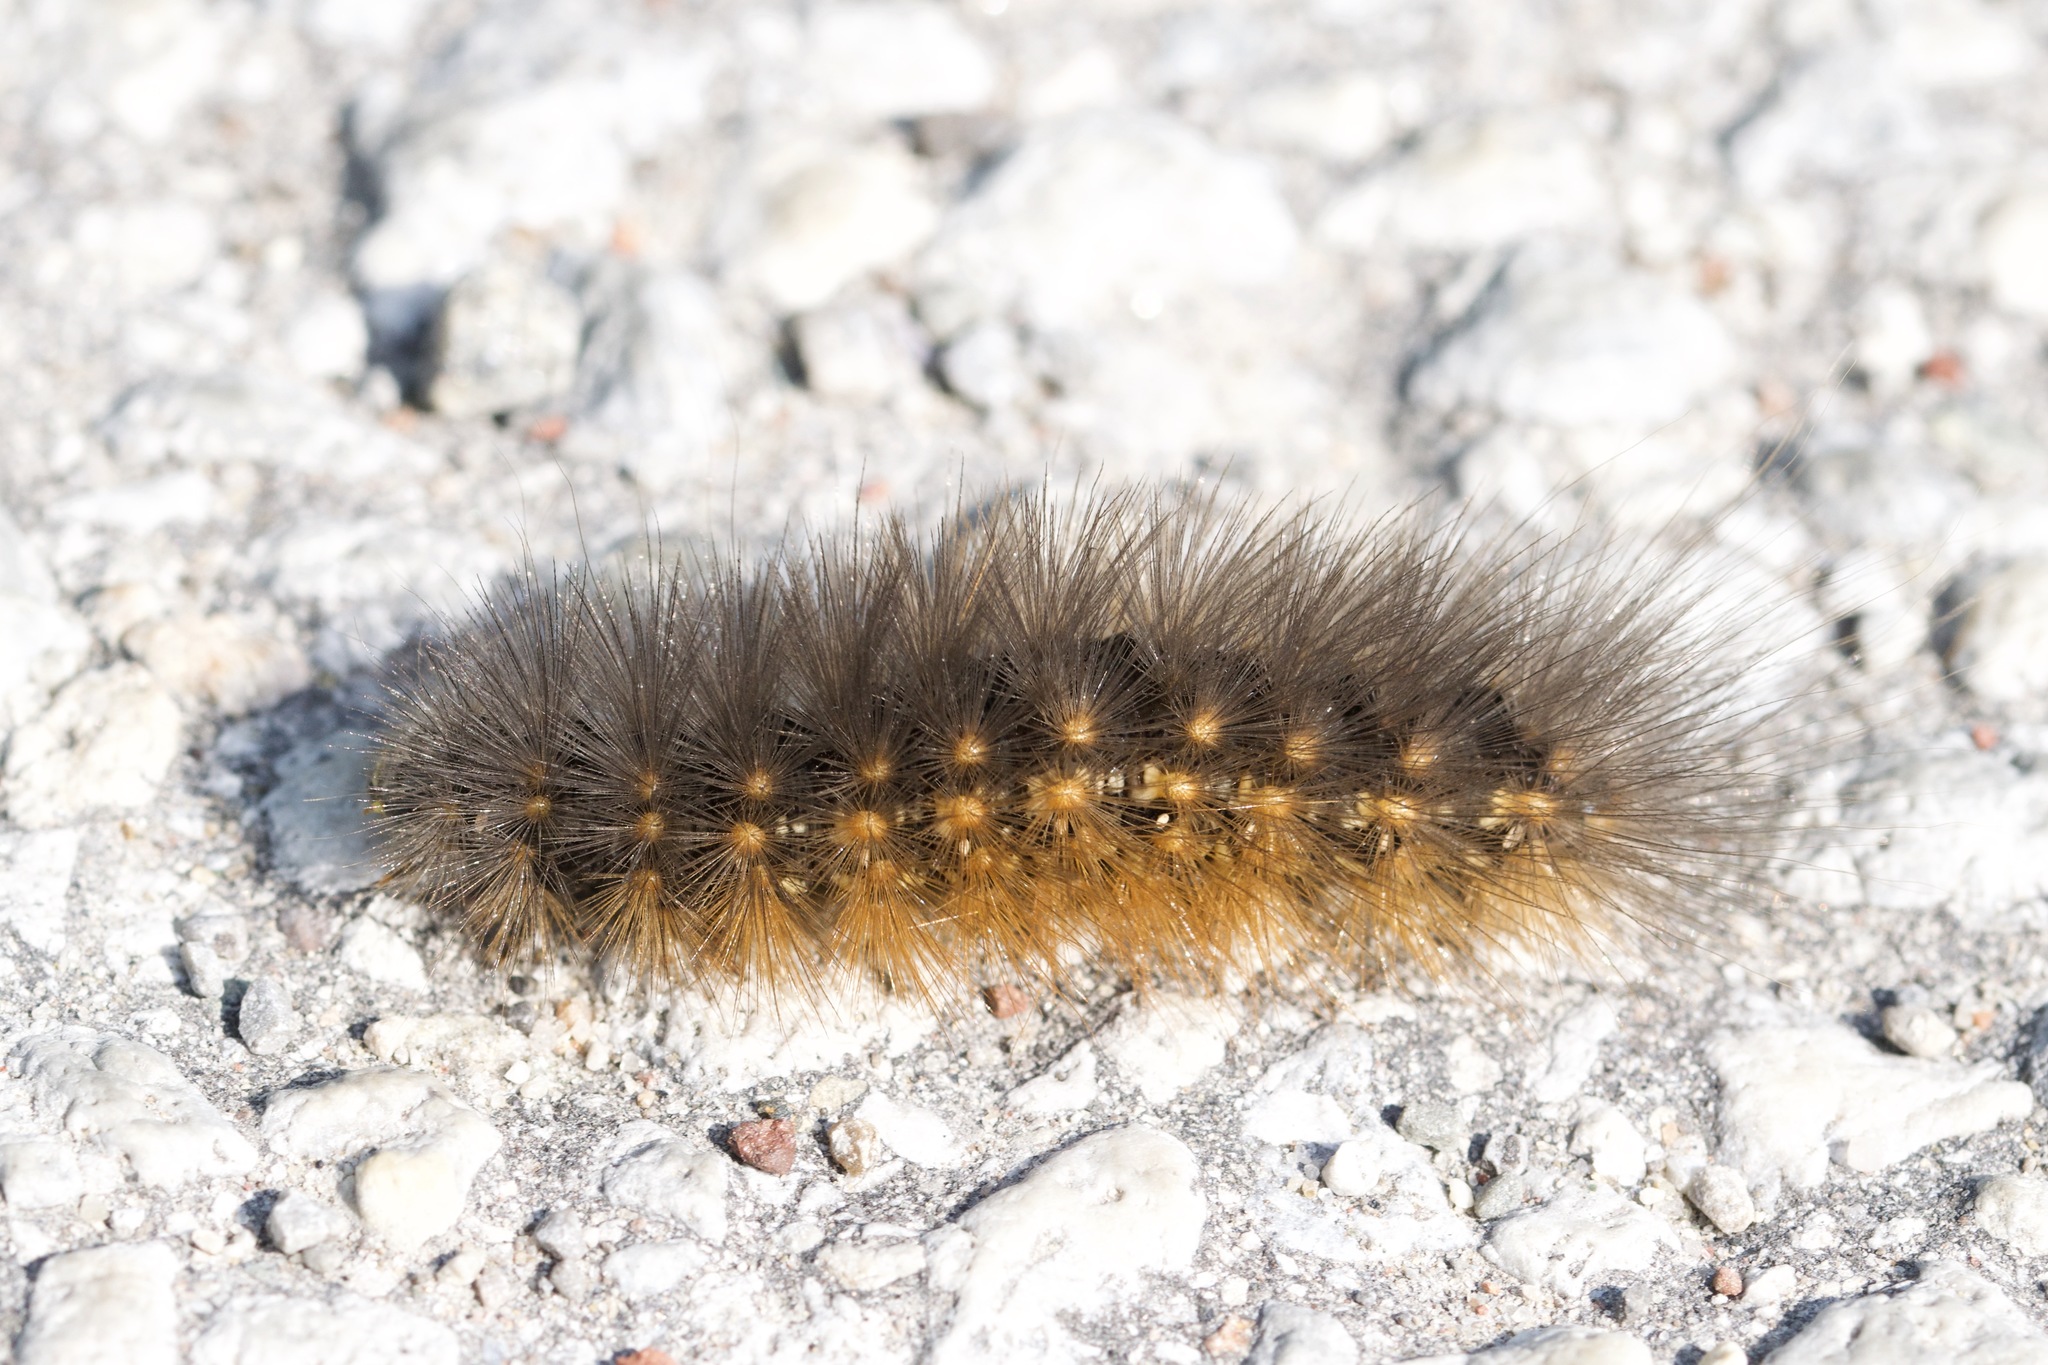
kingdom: Animalia
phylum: Arthropoda
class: Insecta
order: Lepidoptera
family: Erebidae
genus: Estigmene
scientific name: Estigmene acrea
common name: Salt marsh moth
